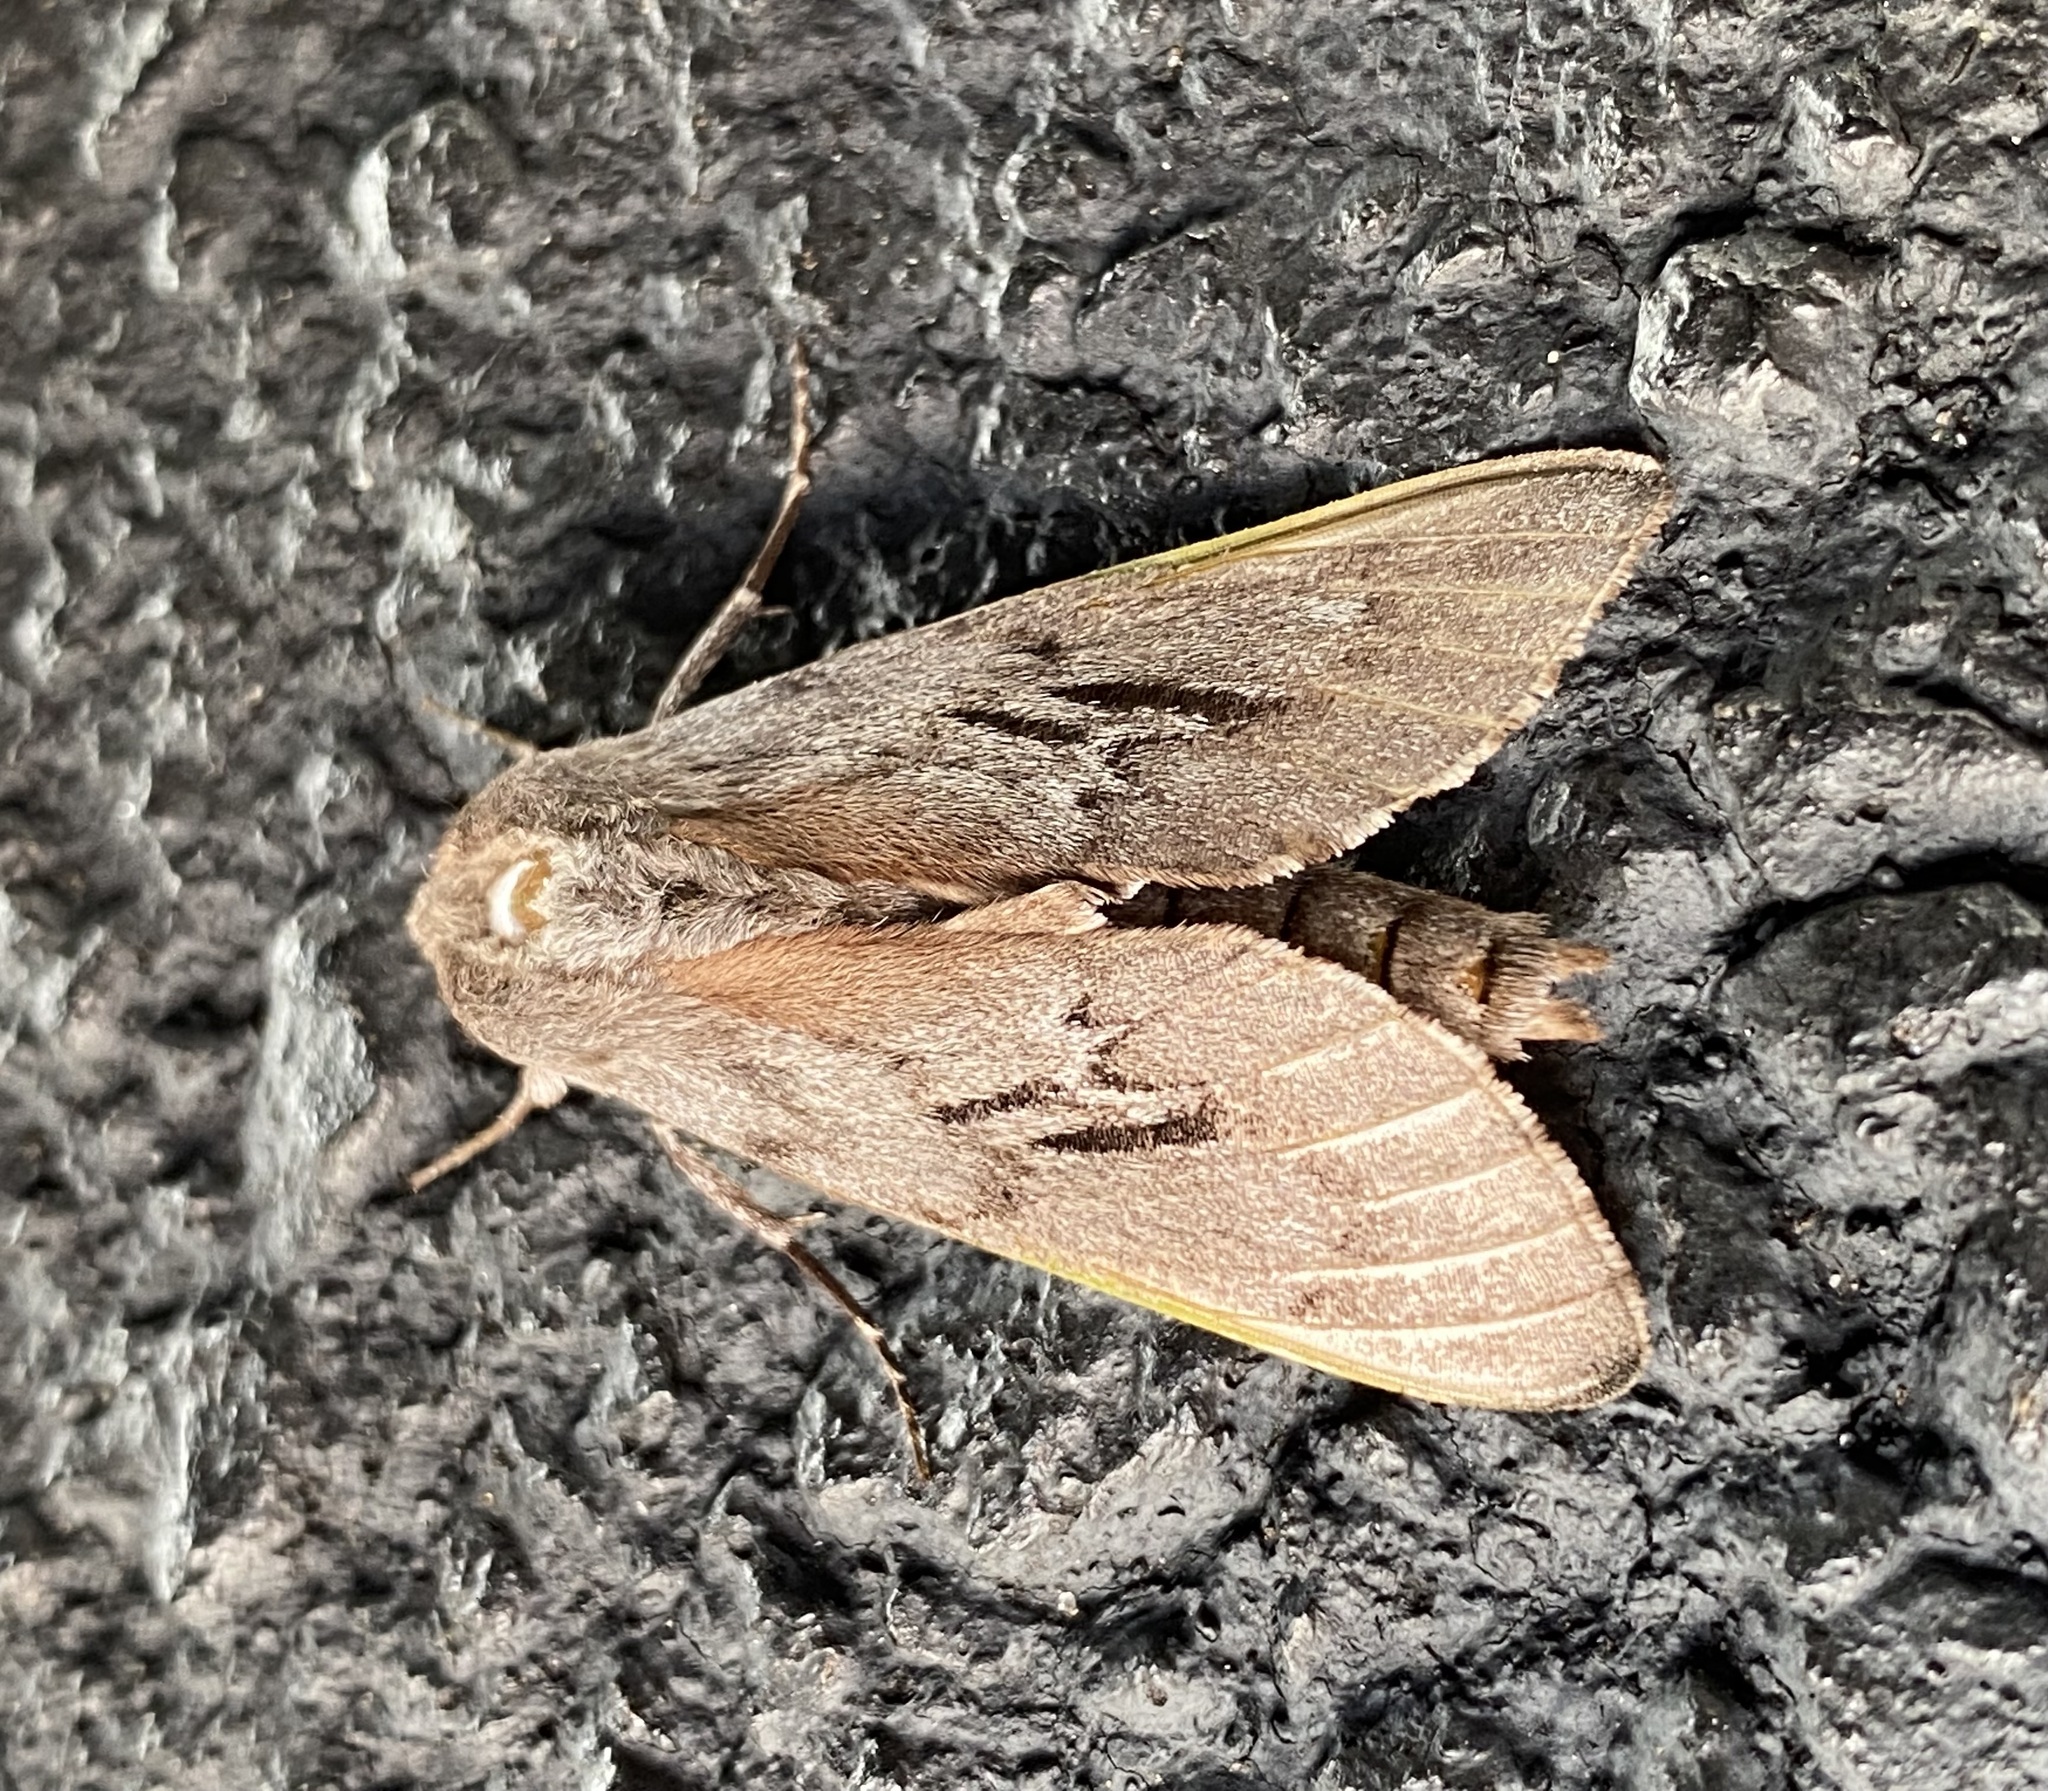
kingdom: Animalia
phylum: Arthropoda
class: Insecta
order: Lepidoptera
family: Sphingidae
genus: Lapara
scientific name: Lapara coniferarum
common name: Southern pine sphinx
